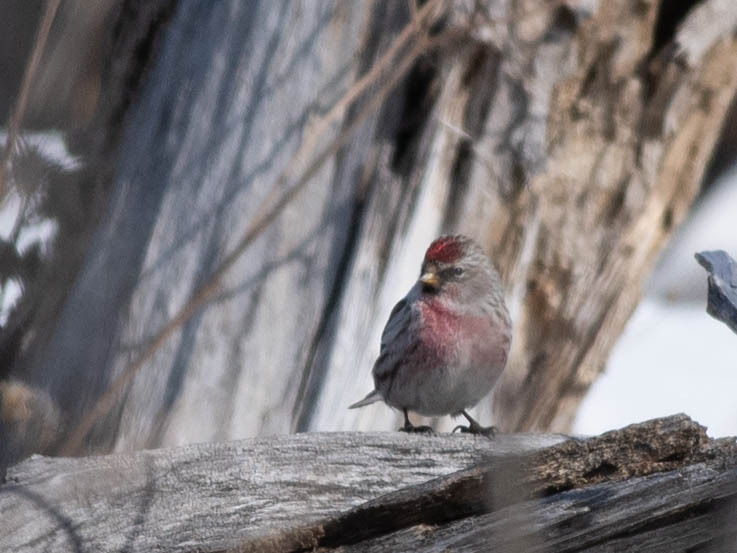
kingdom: Animalia
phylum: Chordata
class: Aves
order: Passeriformes
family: Fringillidae
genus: Acanthis
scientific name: Acanthis flammea
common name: Common redpoll
